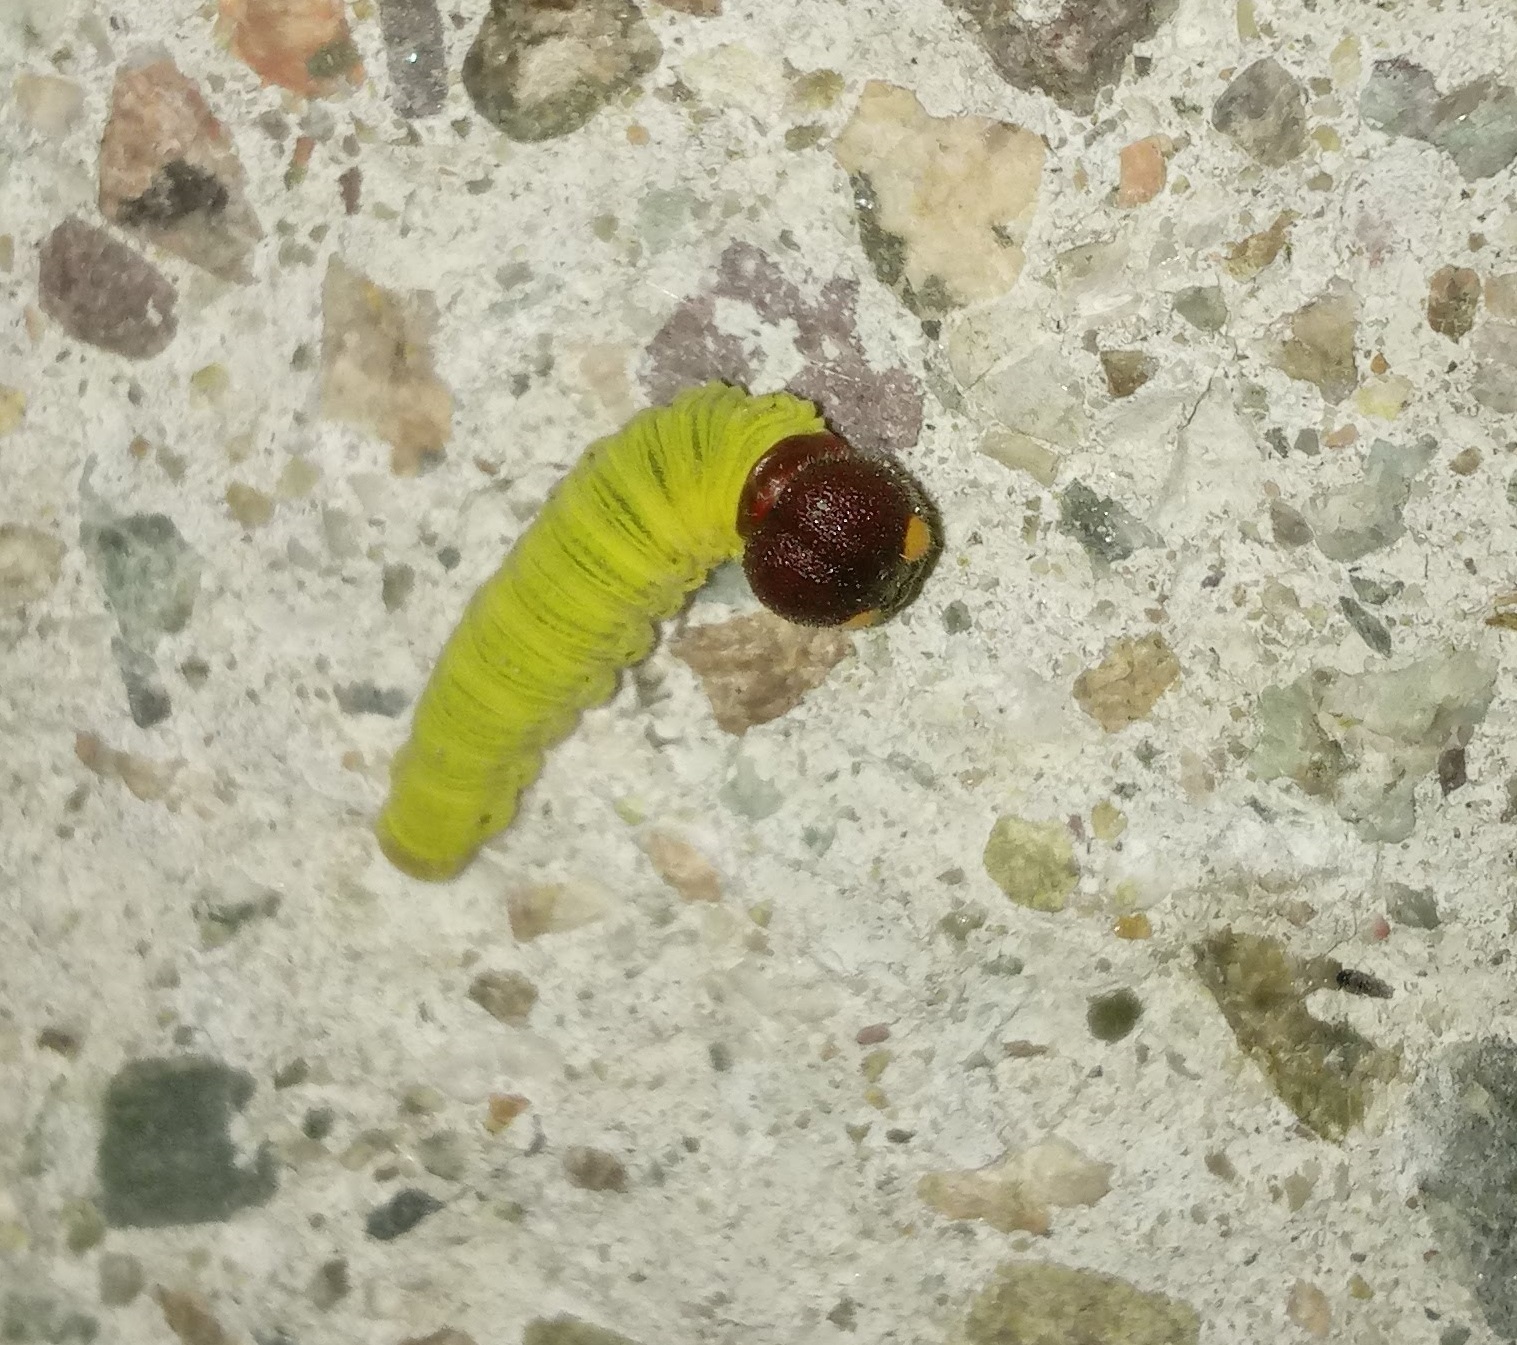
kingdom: Animalia
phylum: Arthropoda
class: Insecta
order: Lepidoptera
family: Hesperiidae
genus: Epargyreus
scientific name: Epargyreus clarus
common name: Silver-spotted skipper
